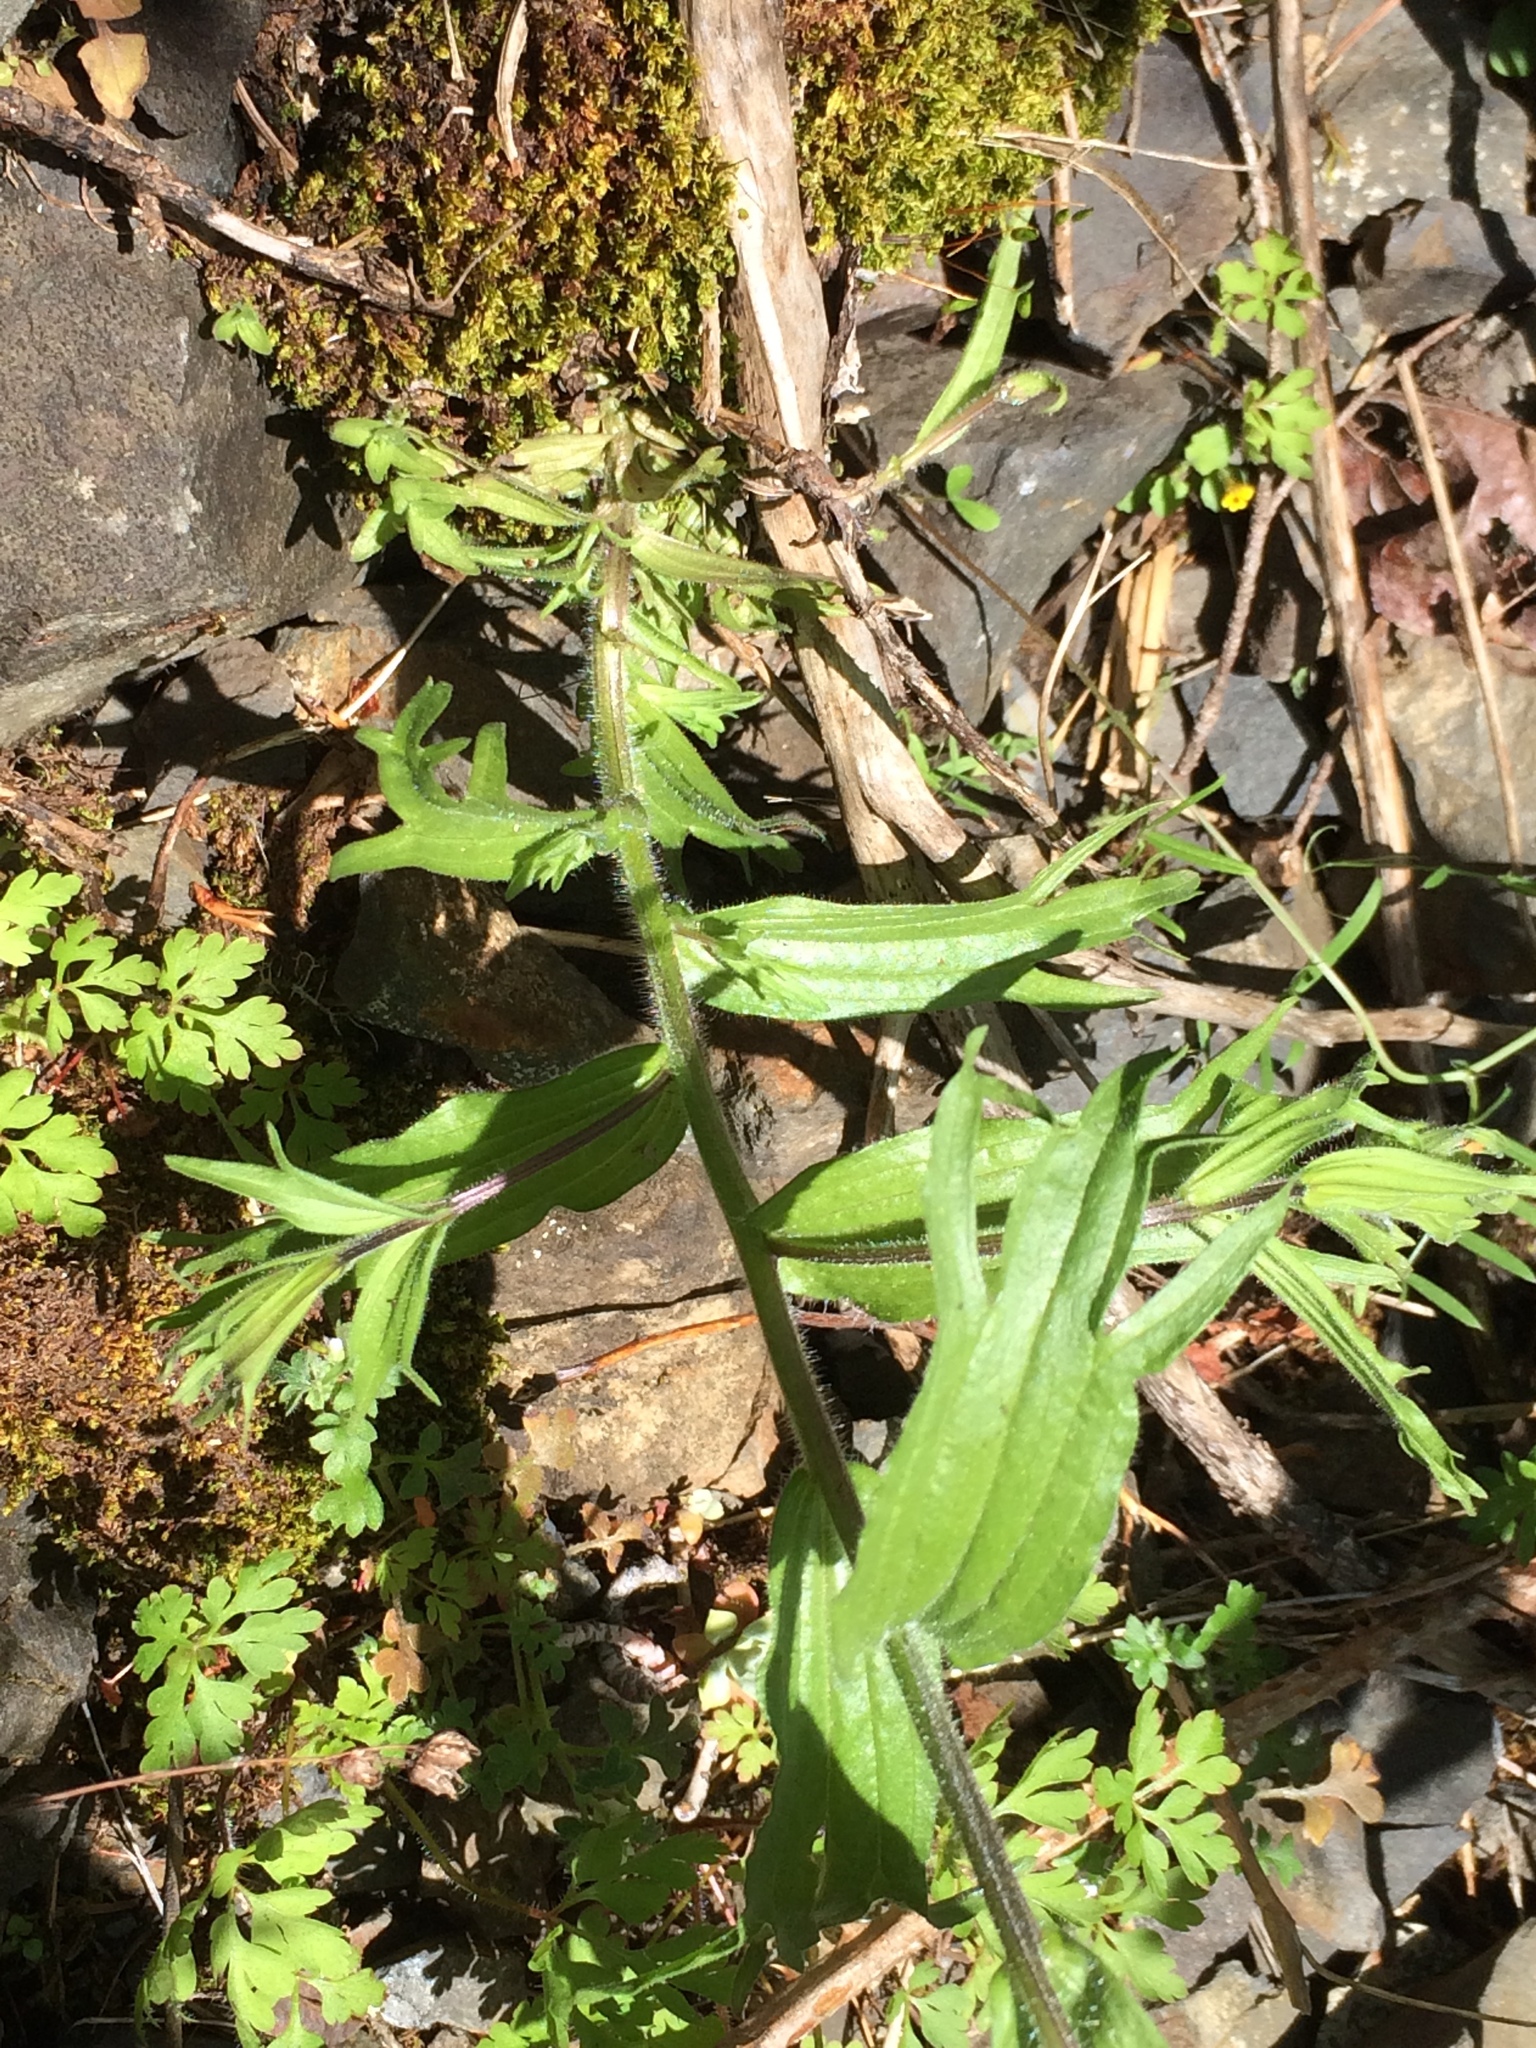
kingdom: Plantae
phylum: Tracheophyta
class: Magnoliopsida
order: Lamiales
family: Orobanchaceae
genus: Castilleja
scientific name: Castilleja hispida
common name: Bristly paintbrush
